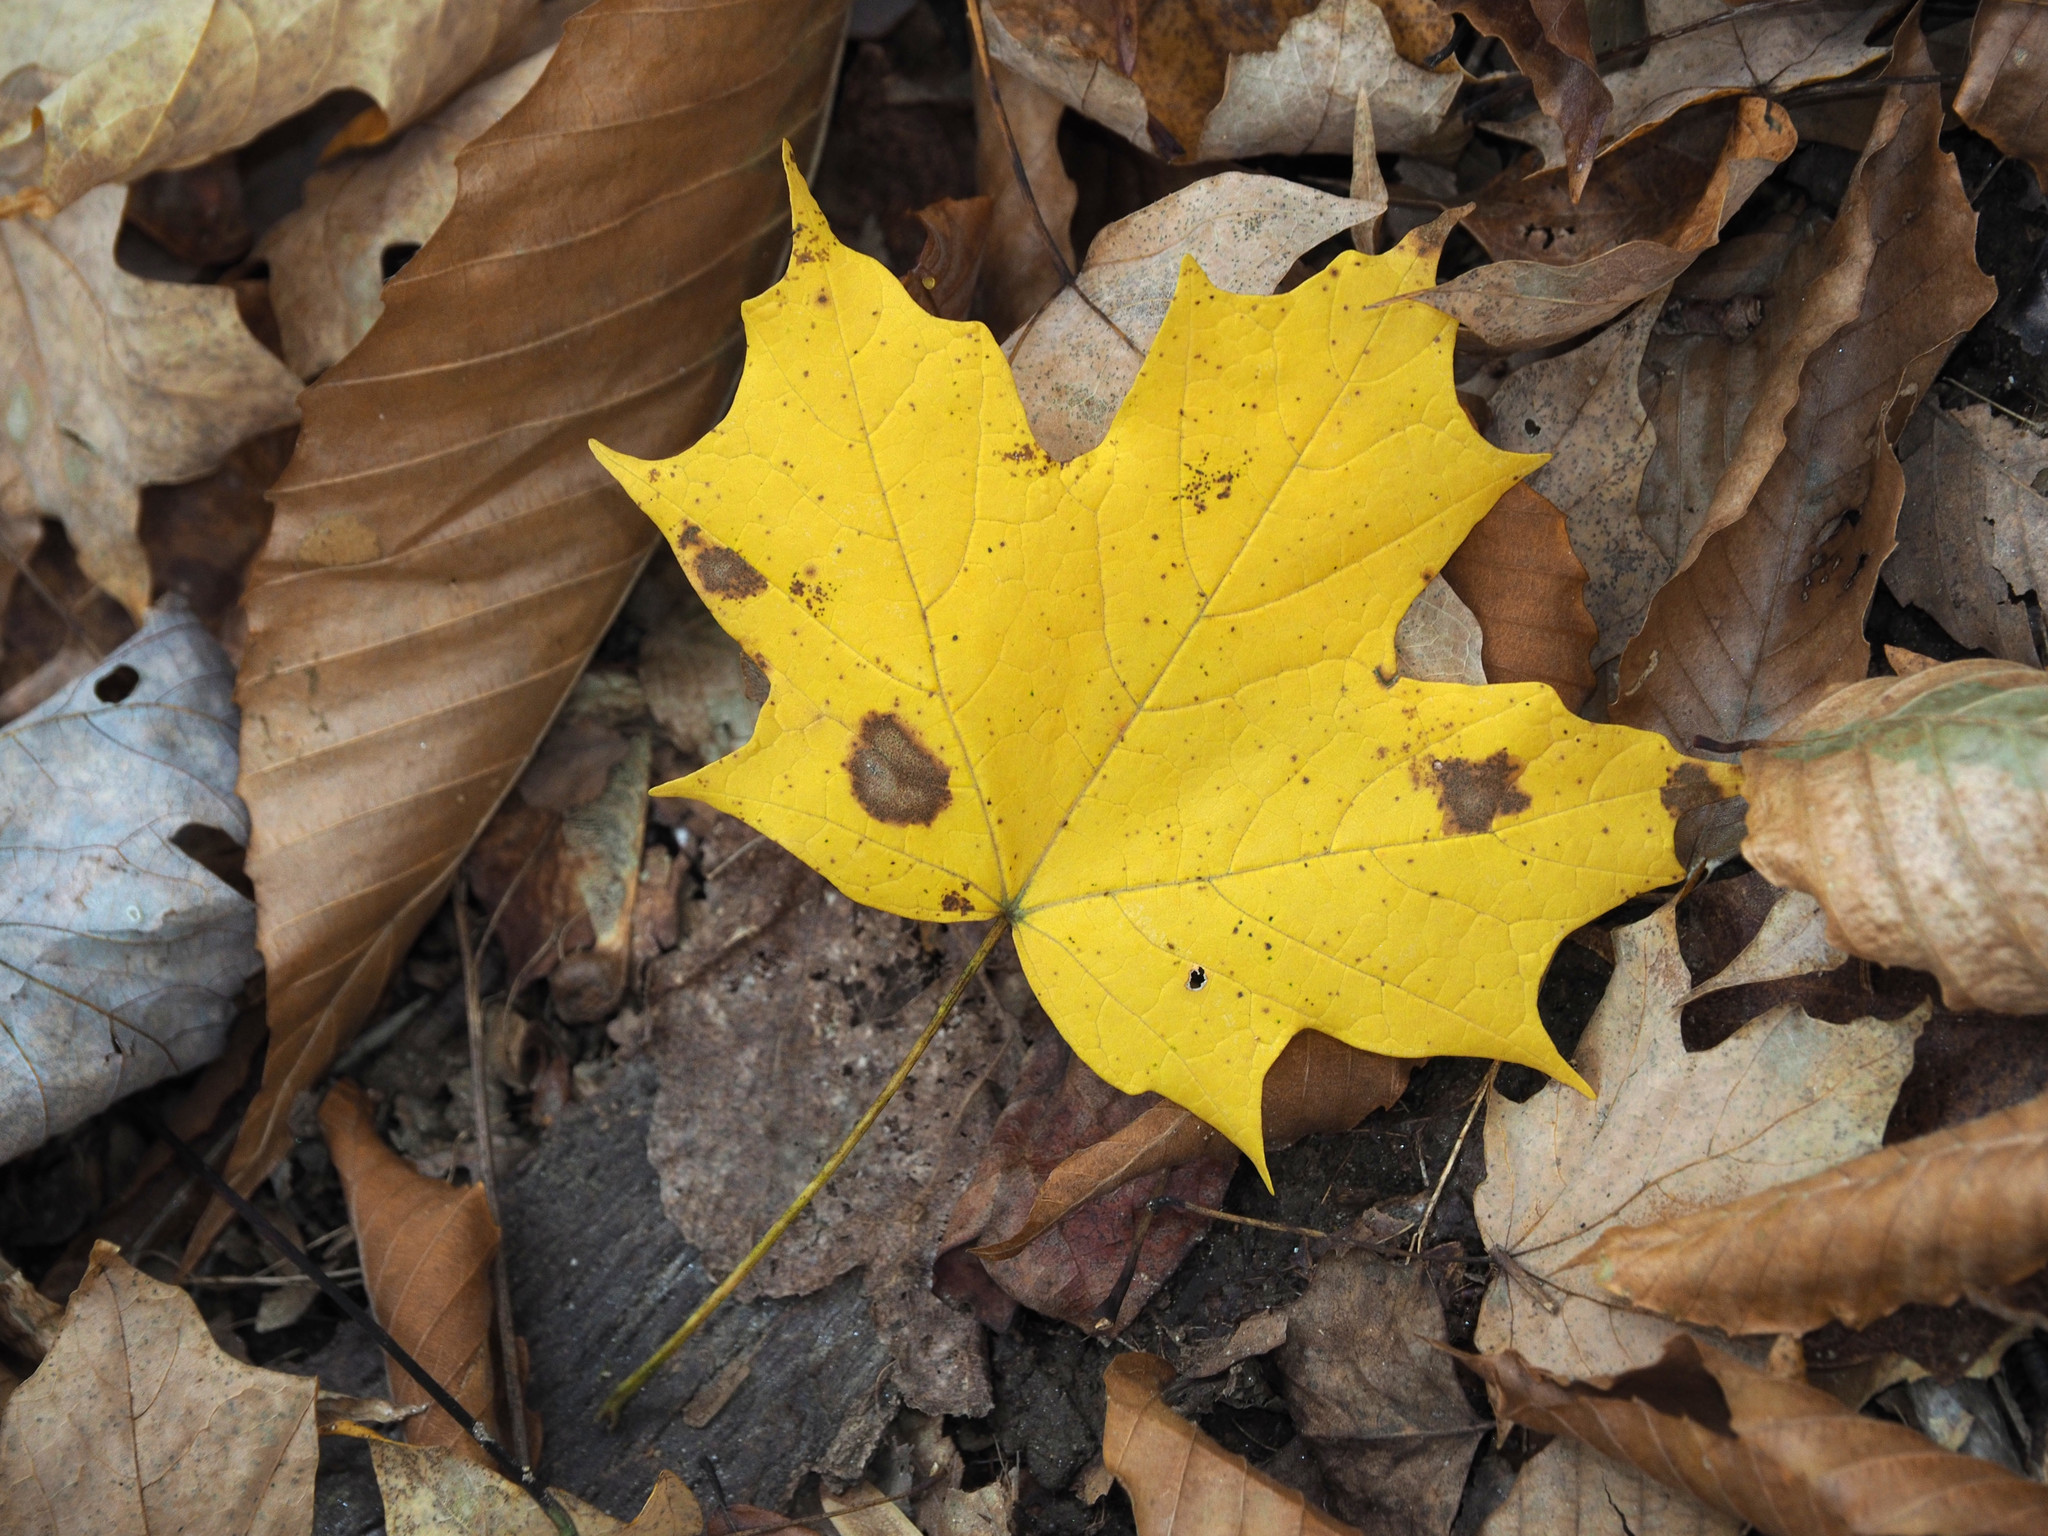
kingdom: Plantae
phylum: Tracheophyta
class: Magnoliopsida
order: Sapindales
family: Sapindaceae
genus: Acer
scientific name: Acer saccharum
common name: Sugar maple
